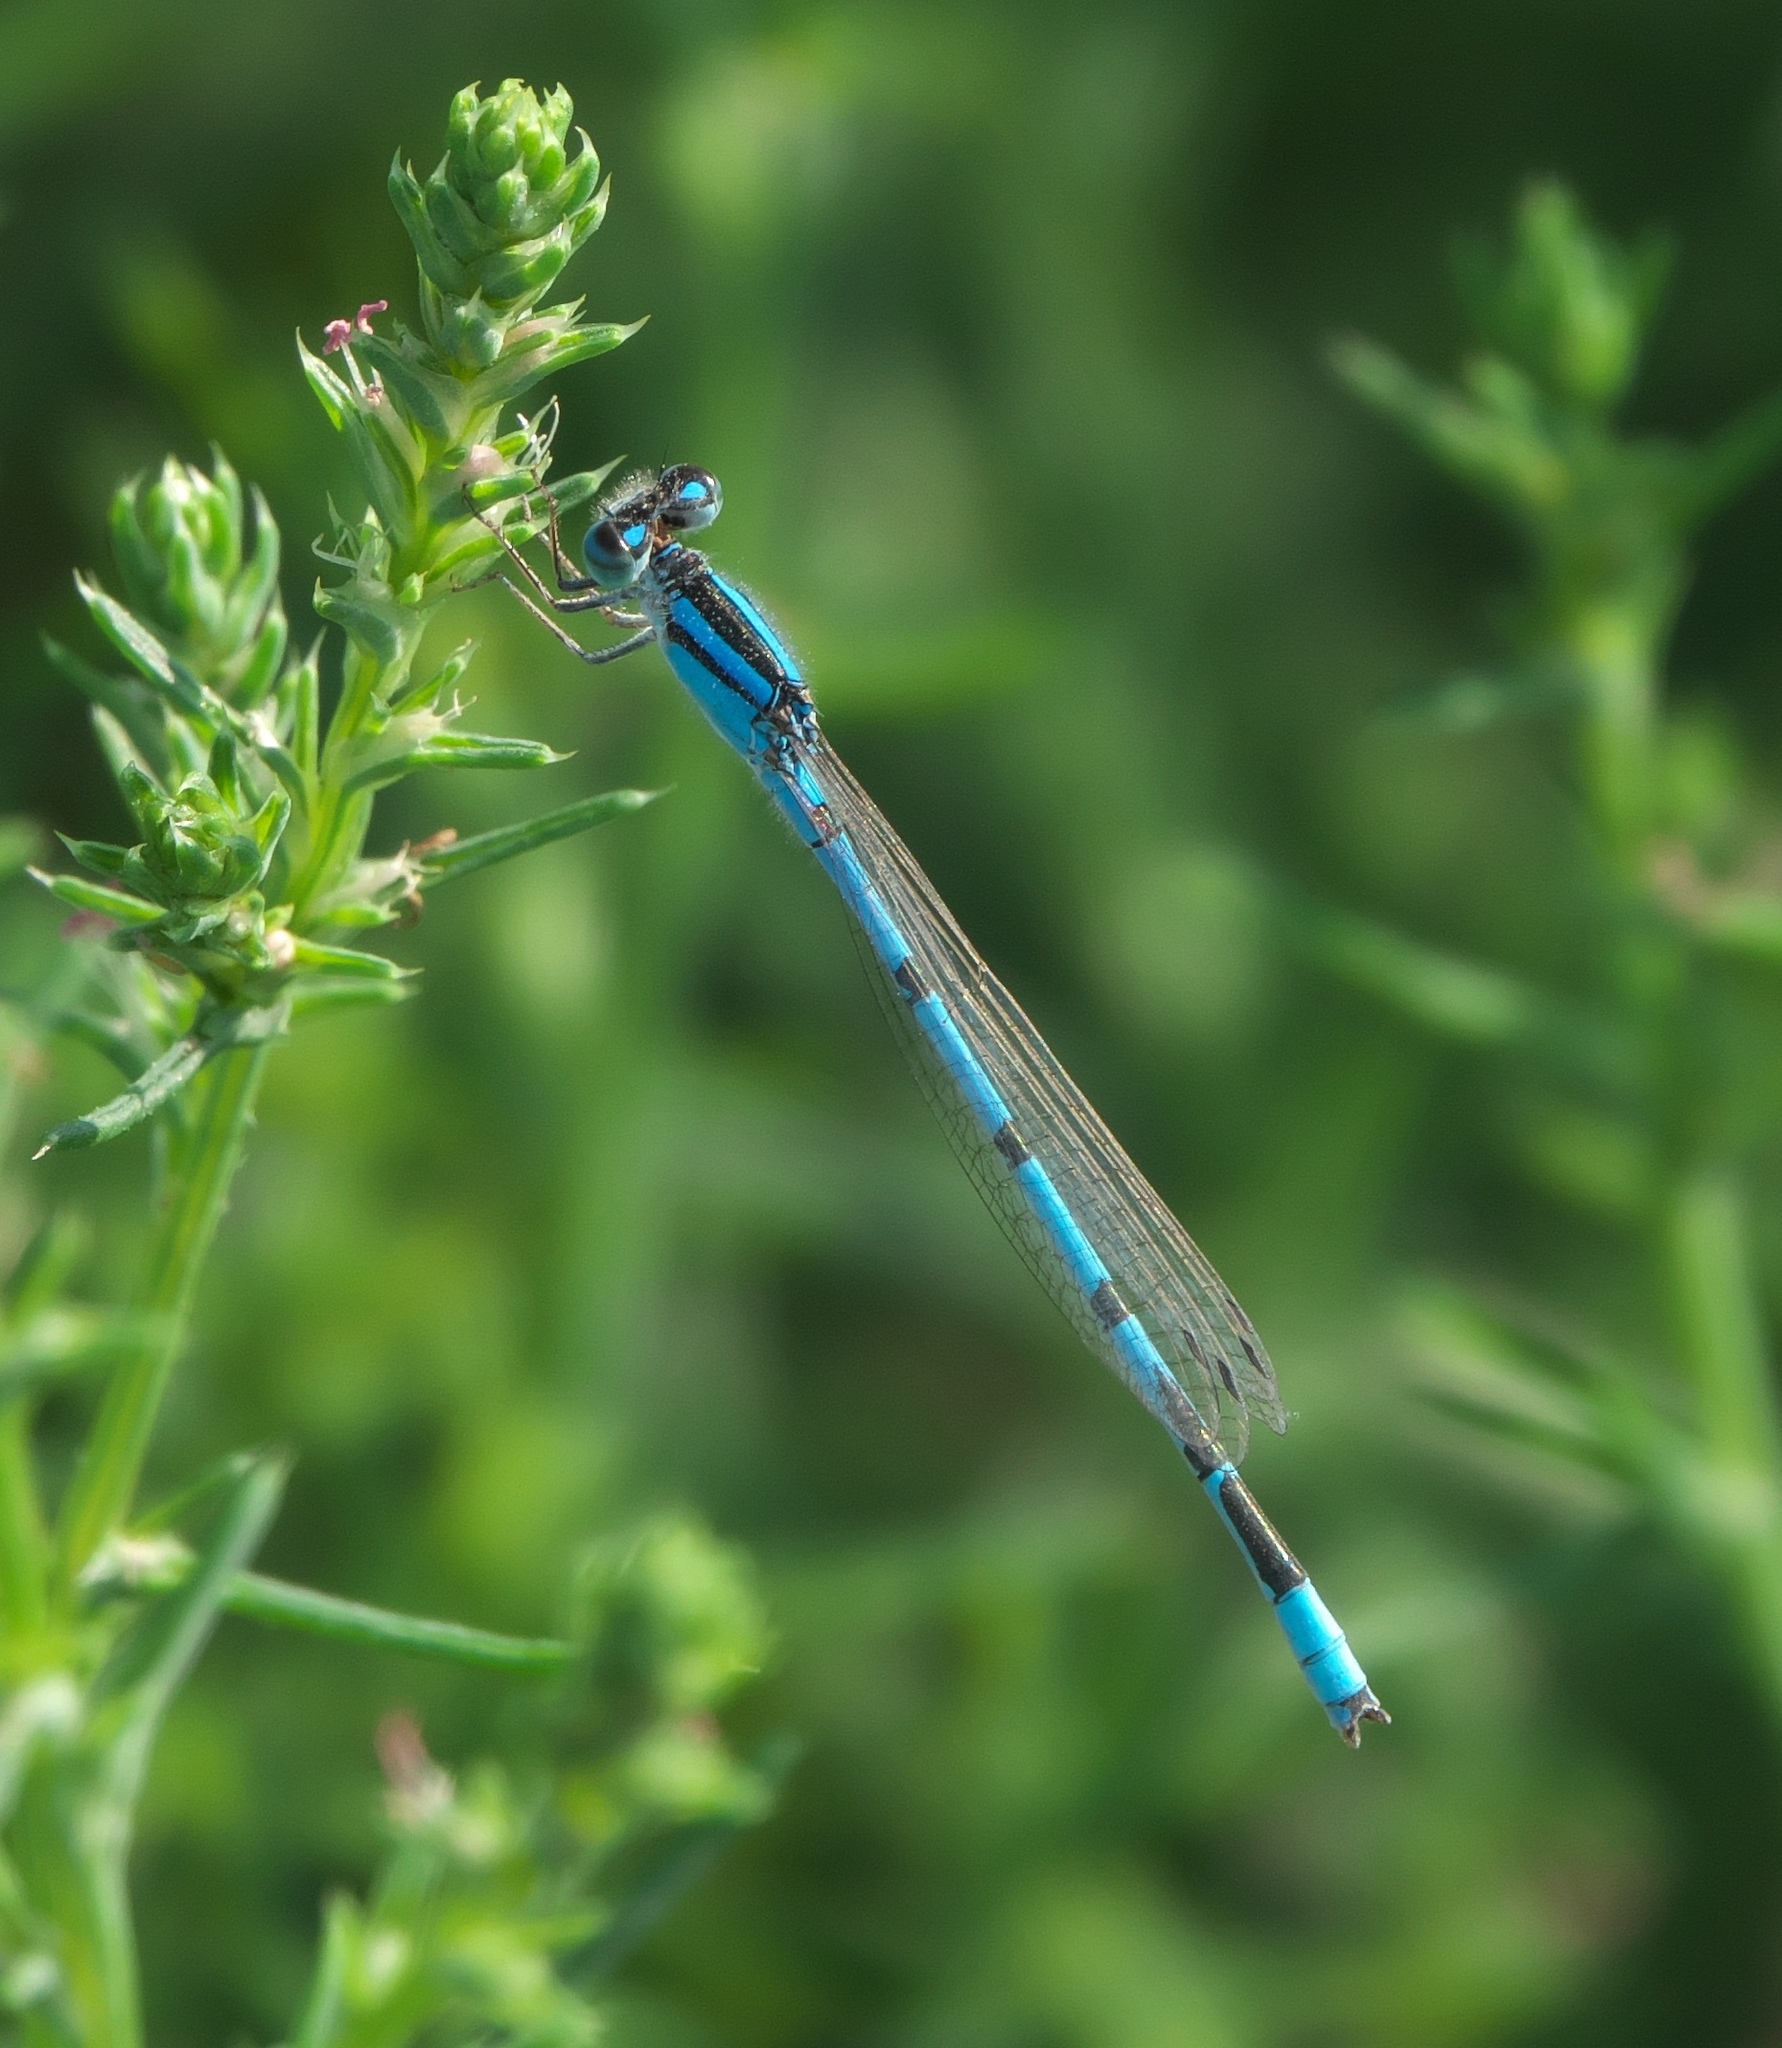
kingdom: Animalia
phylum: Arthropoda
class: Insecta
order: Odonata
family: Coenagrionidae
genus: Enallagma
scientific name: Enallagma civile
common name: Damselfly
